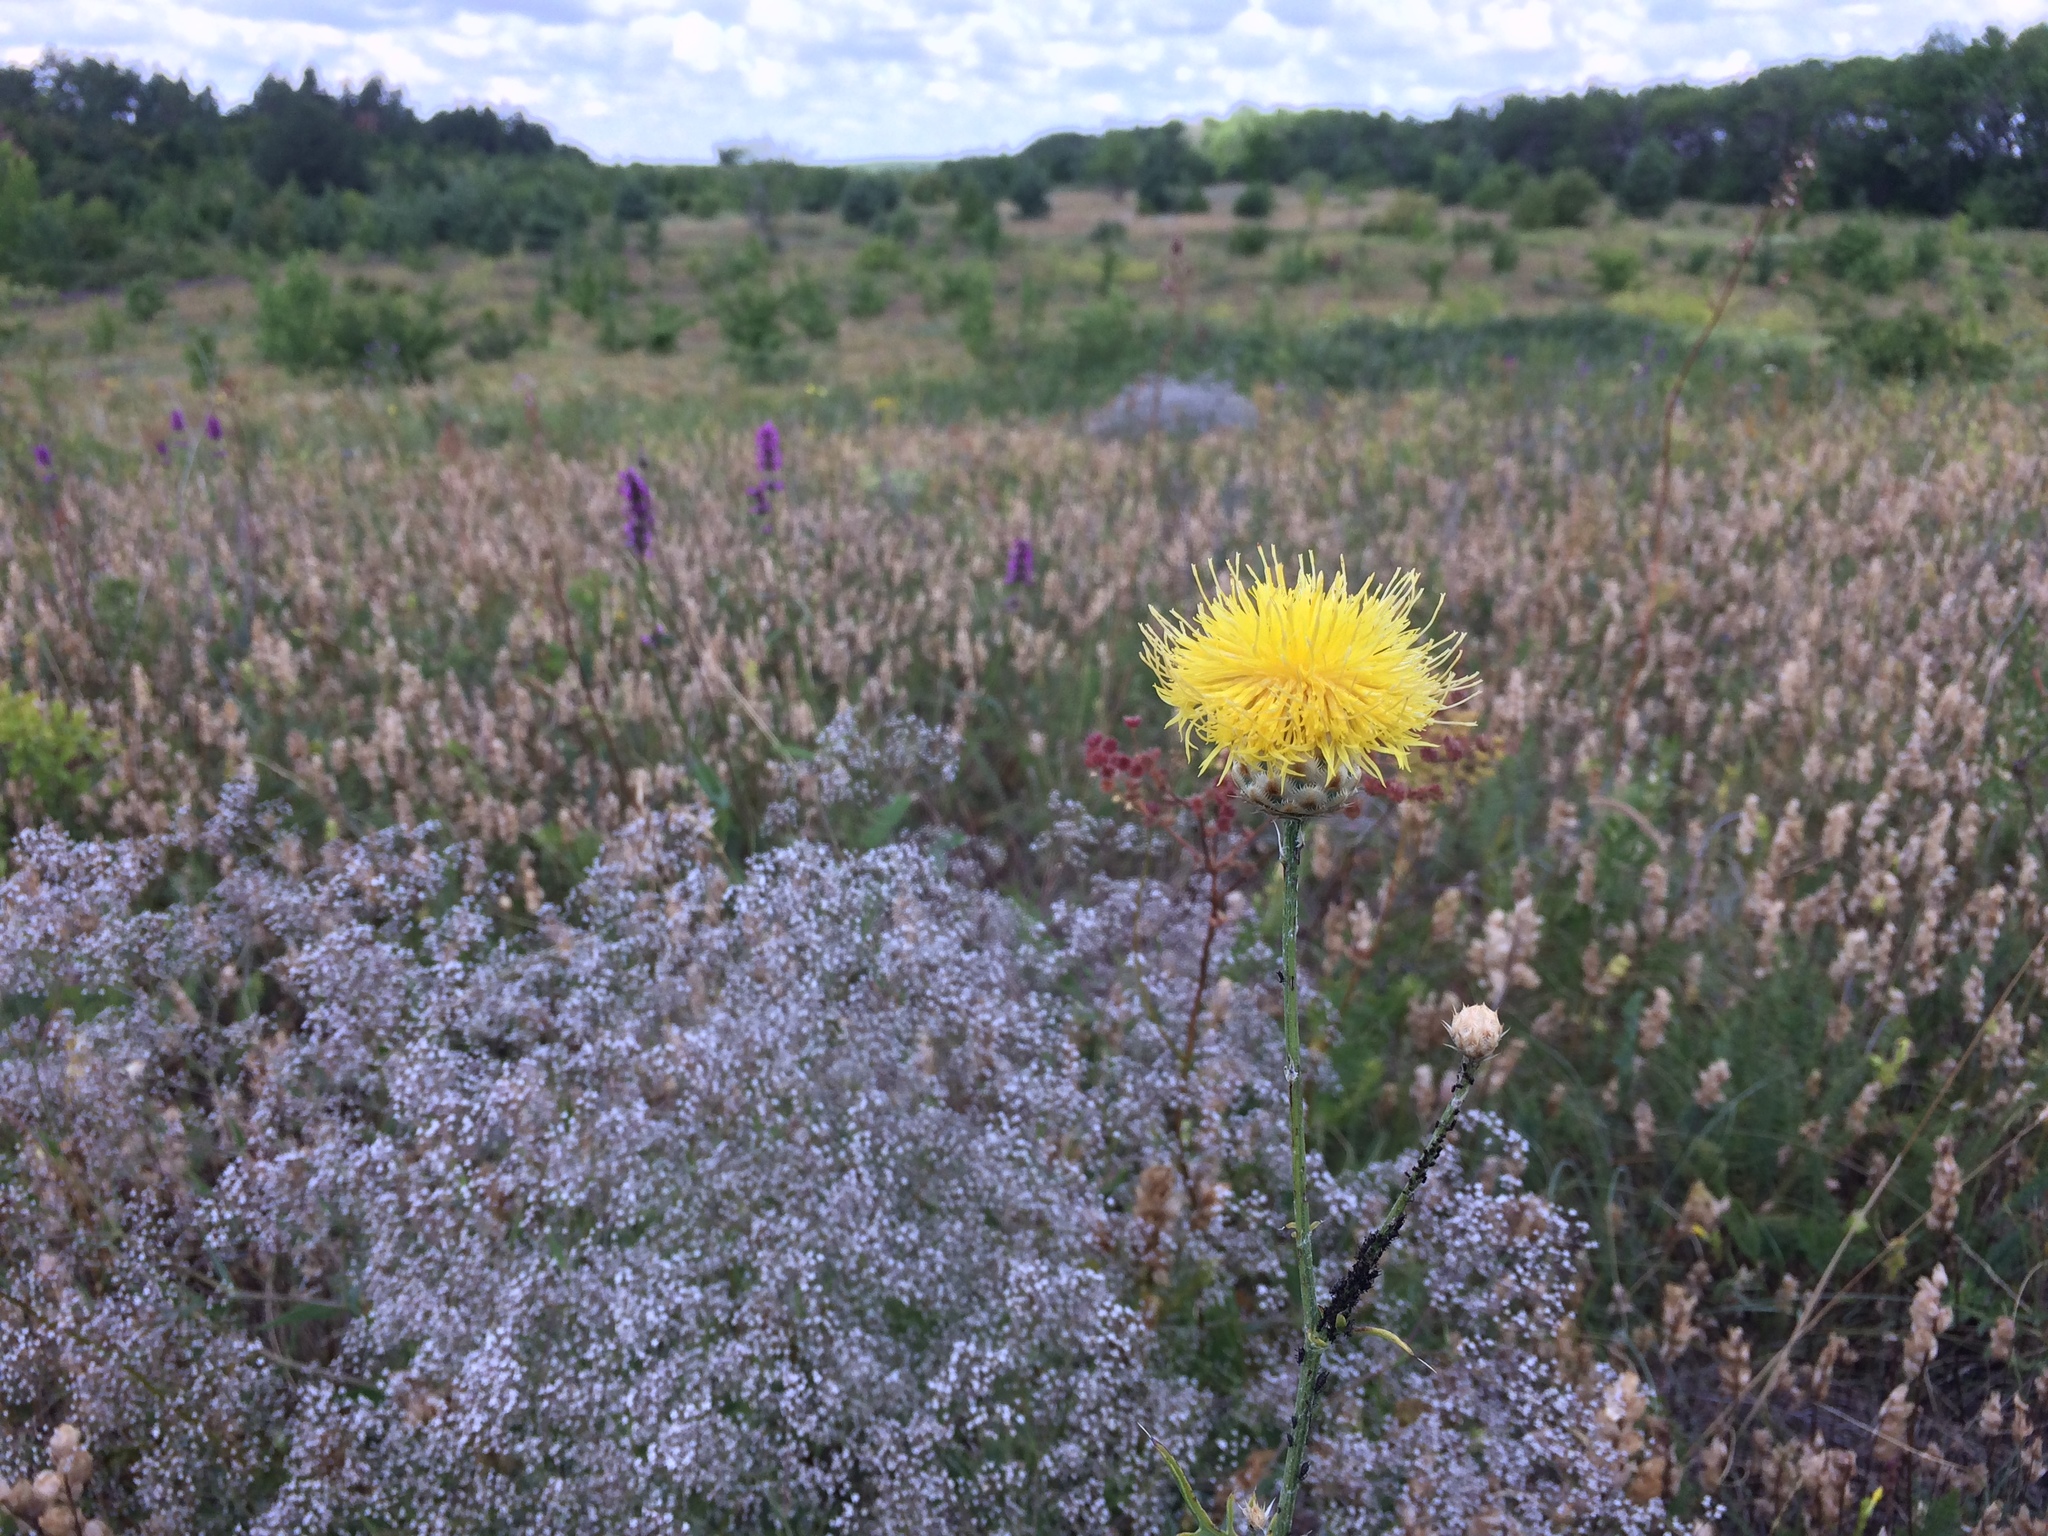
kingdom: Plantae
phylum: Tracheophyta
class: Magnoliopsida
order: Asterales
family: Asteraceae
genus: Centaurea
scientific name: Centaurea orientalis
